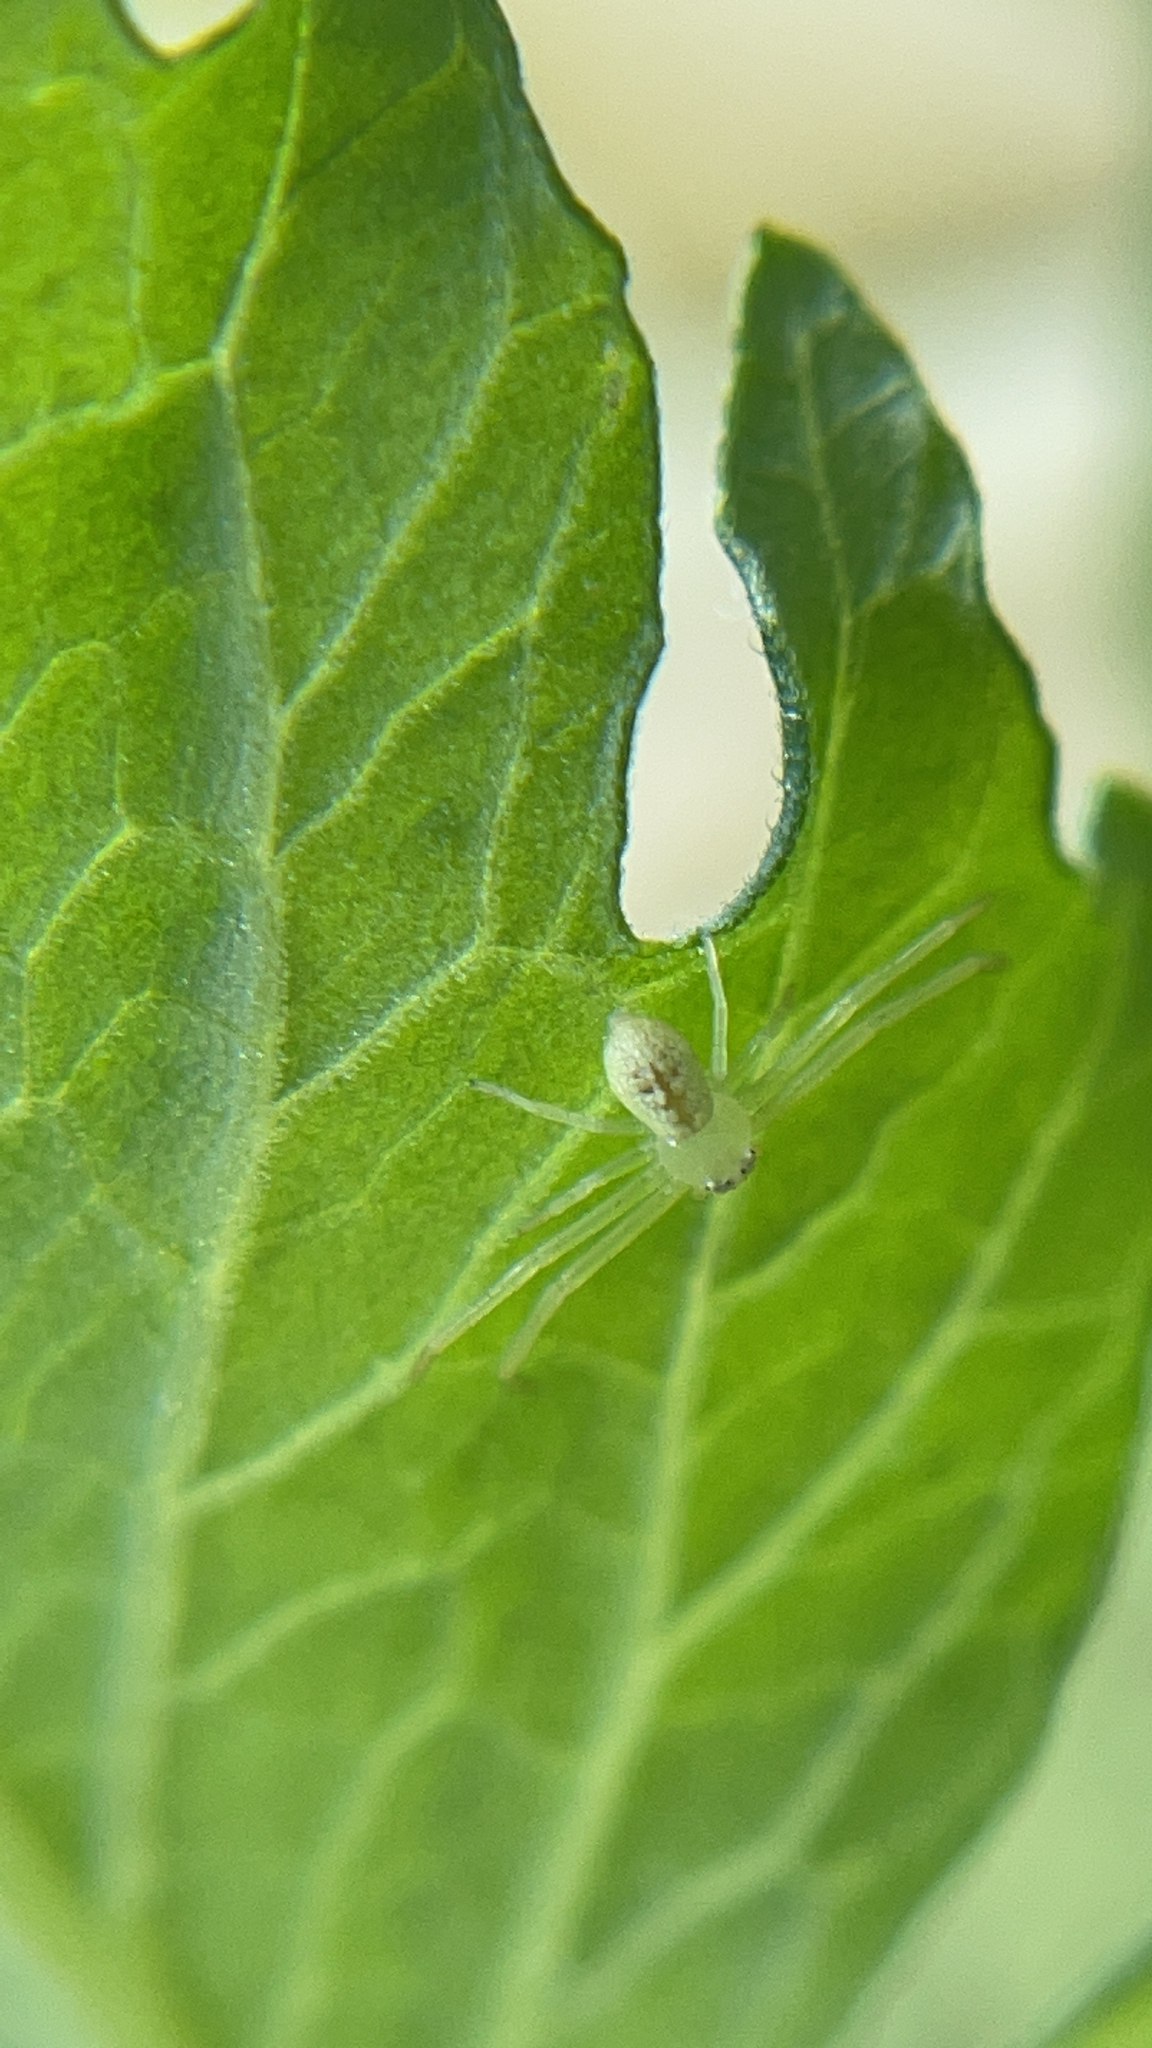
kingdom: Animalia
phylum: Arthropoda
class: Arachnida
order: Araneae
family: Thomisidae
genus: Misumessus
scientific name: Misumessus oblongus
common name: American green crab spider
